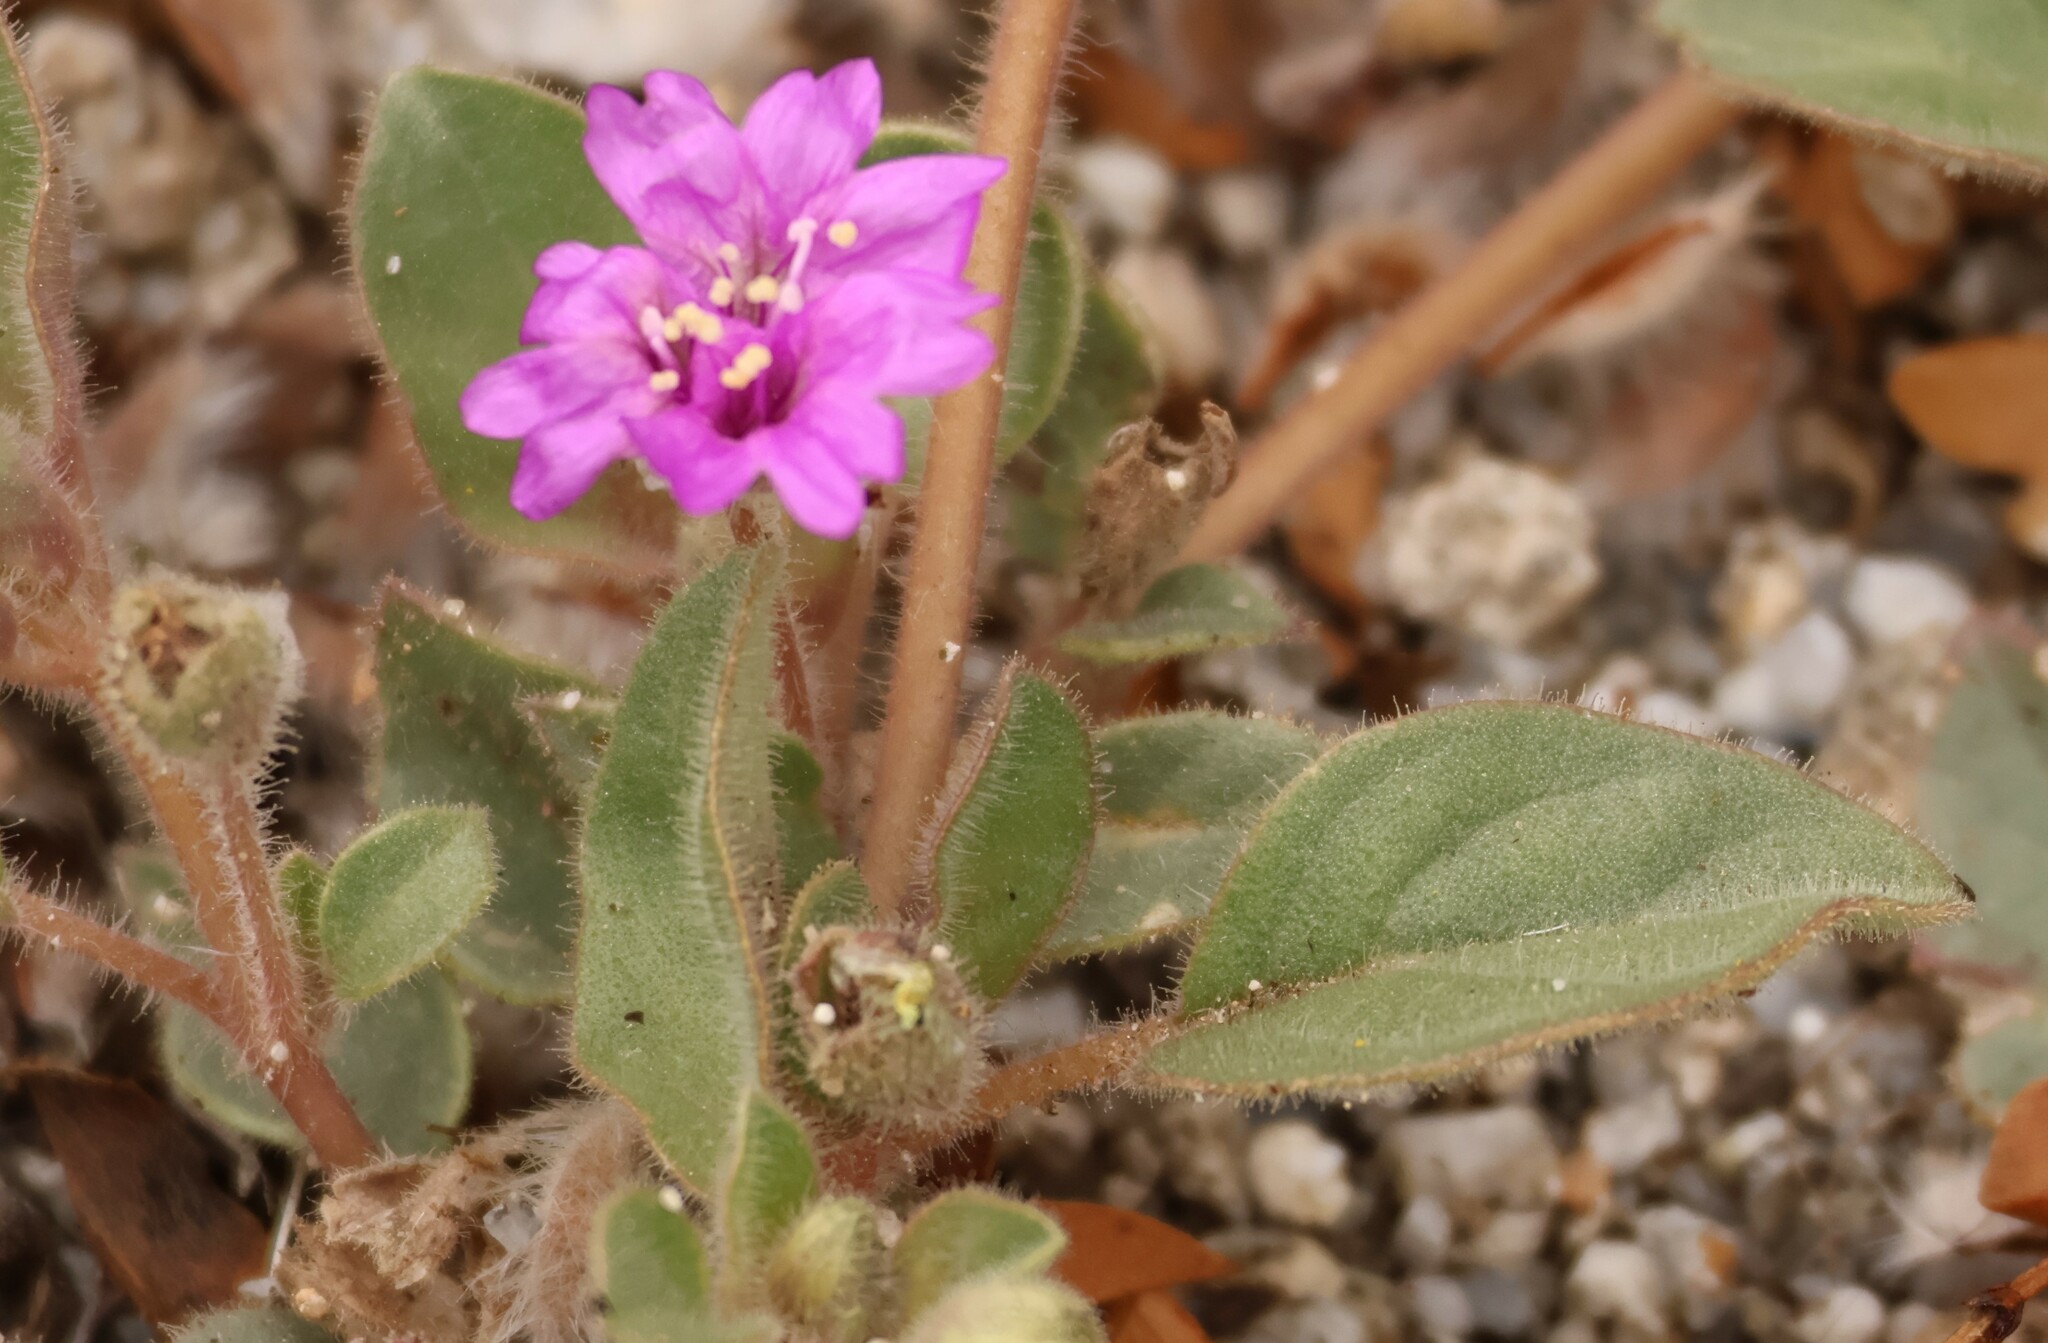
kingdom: Plantae
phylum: Tracheophyta
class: Magnoliopsida
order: Caryophyllales
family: Nyctaginaceae
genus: Allionia
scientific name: Allionia incarnata
